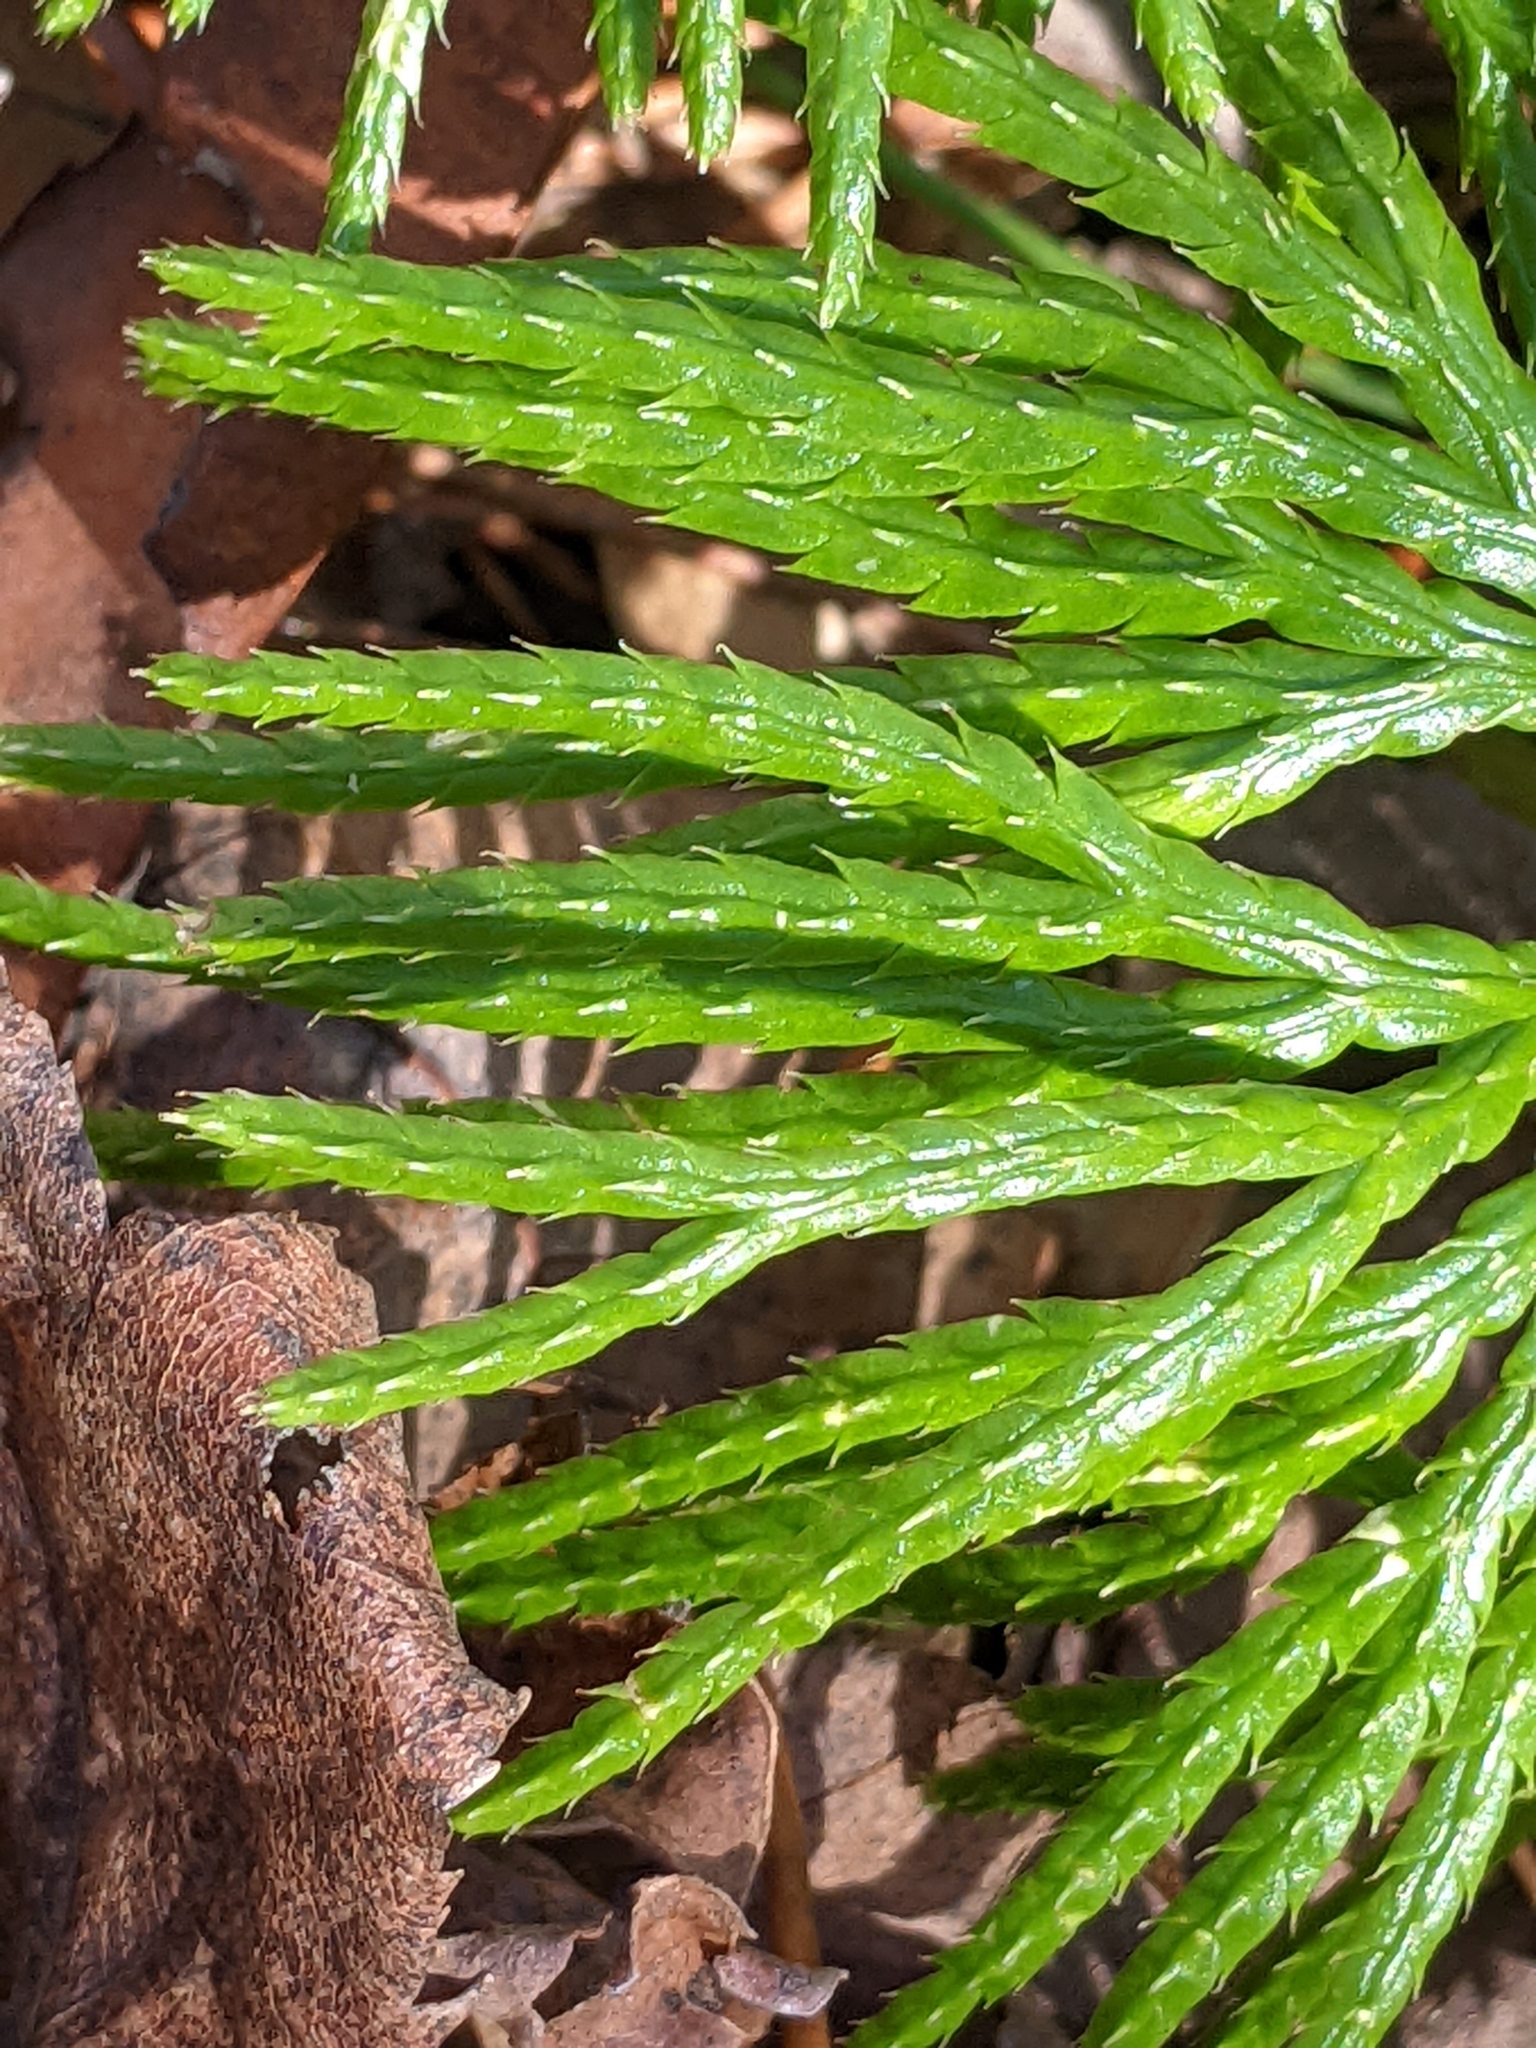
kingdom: Plantae
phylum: Tracheophyta
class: Lycopodiopsida
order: Lycopodiales
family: Lycopodiaceae
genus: Diphasiastrum
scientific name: Diphasiastrum digitatum
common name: Southern running-pine
